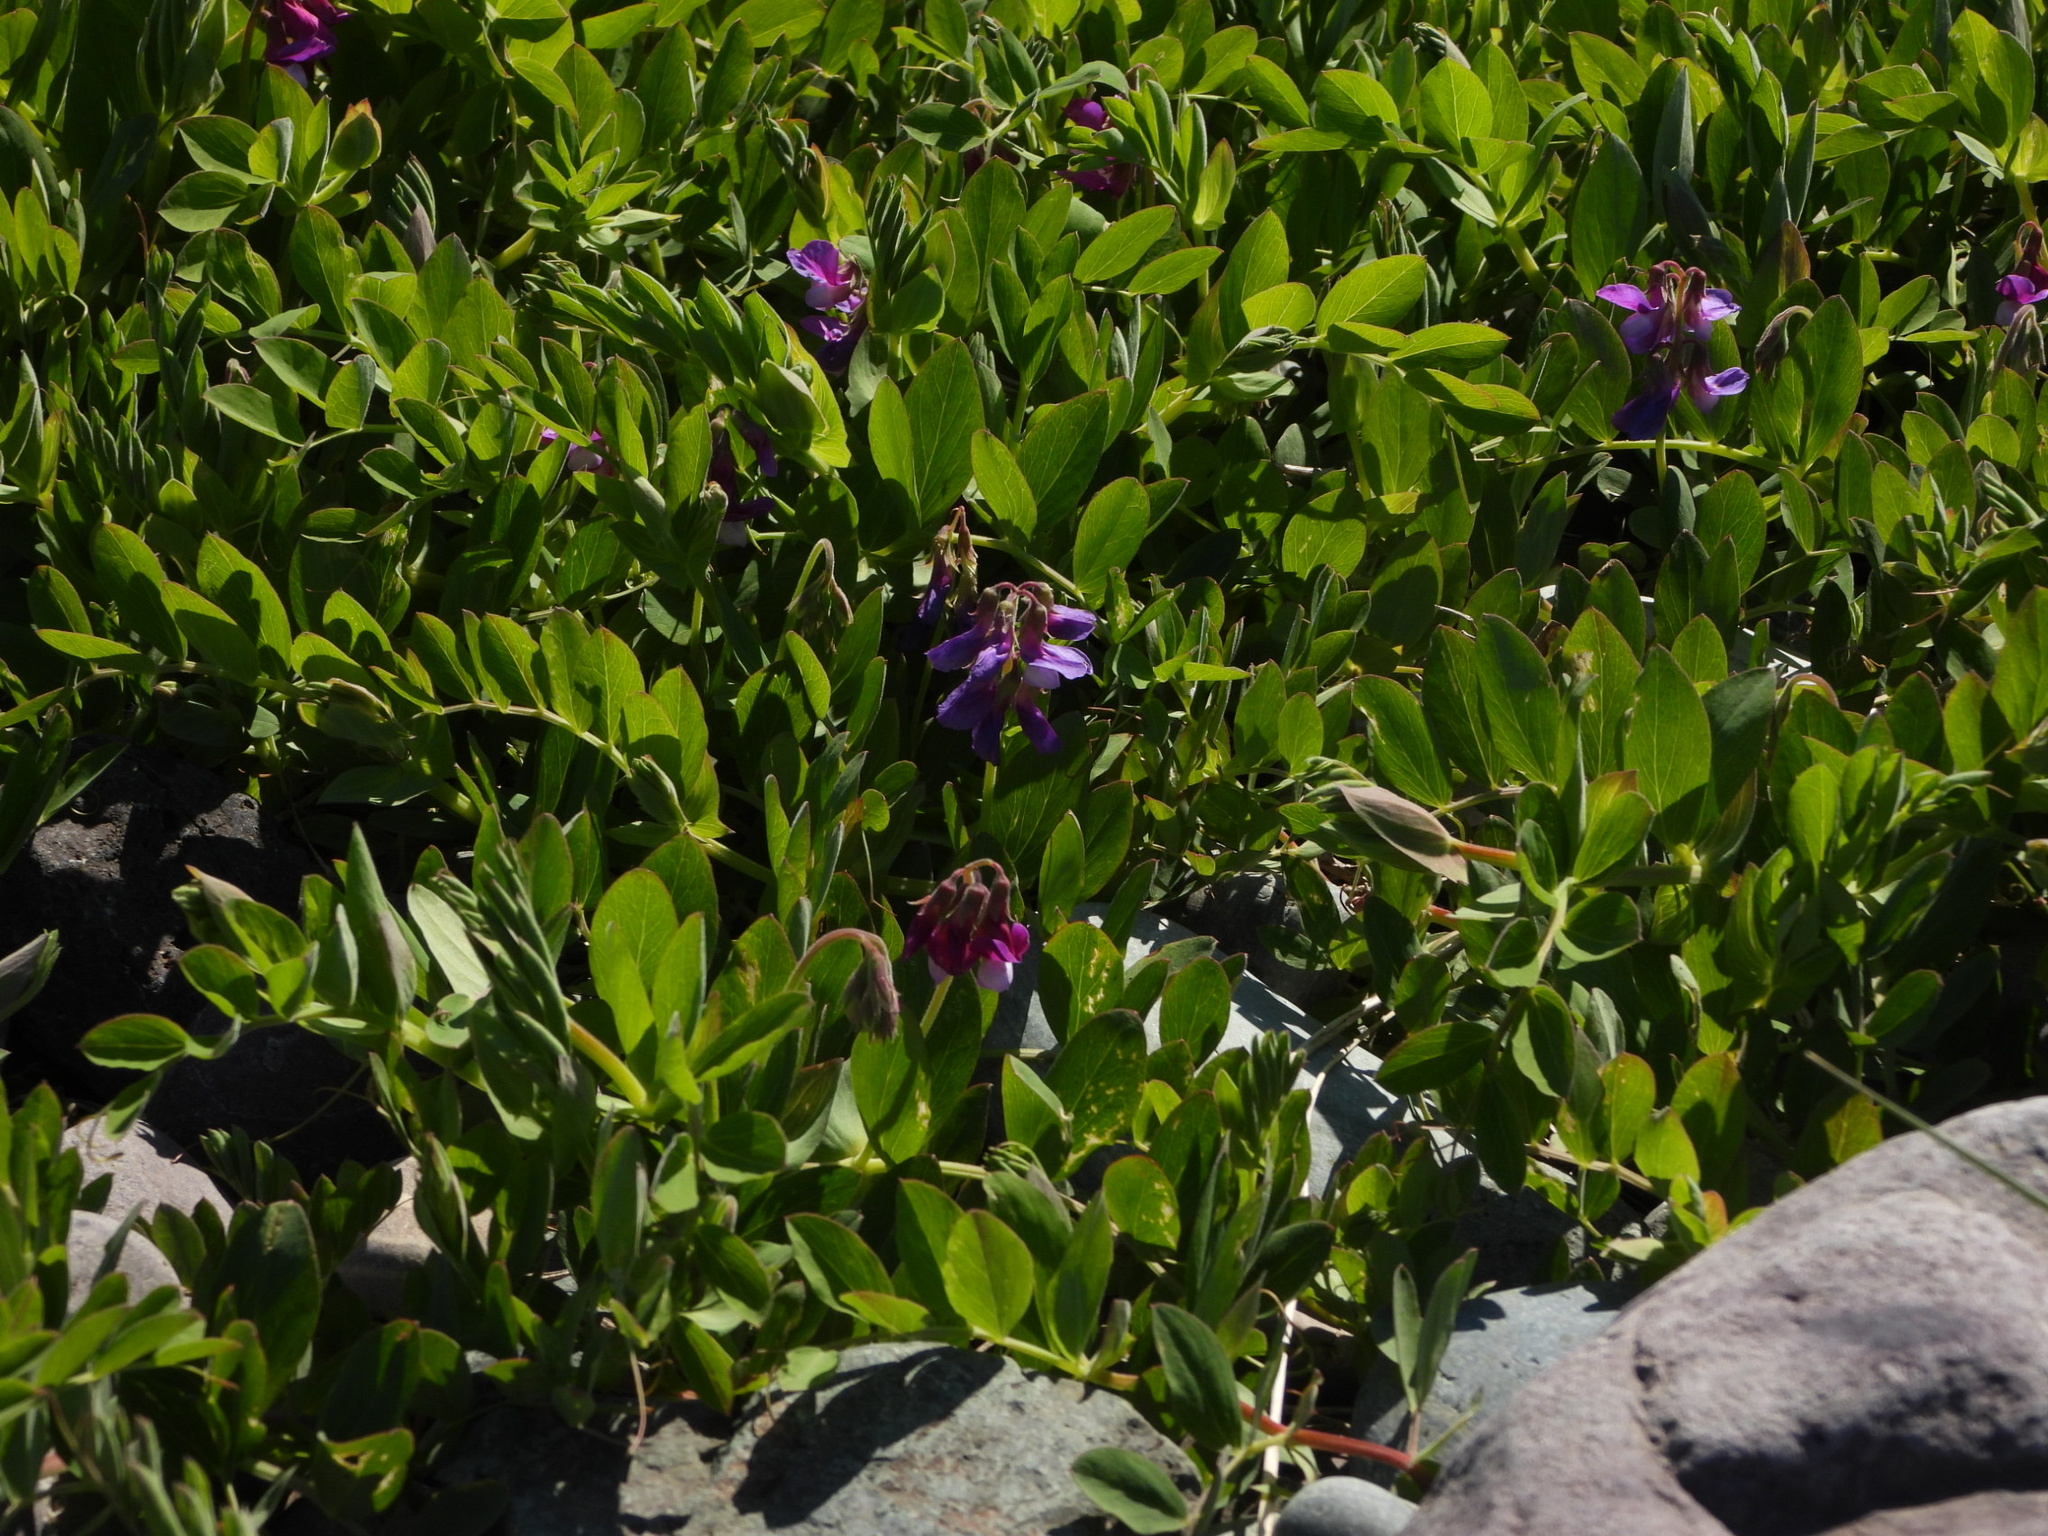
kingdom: Plantae
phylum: Tracheophyta
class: Magnoliopsida
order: Fabales
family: Fabaceae
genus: Lathyrus
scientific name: Lathyrus japonicus
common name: Sea pea
